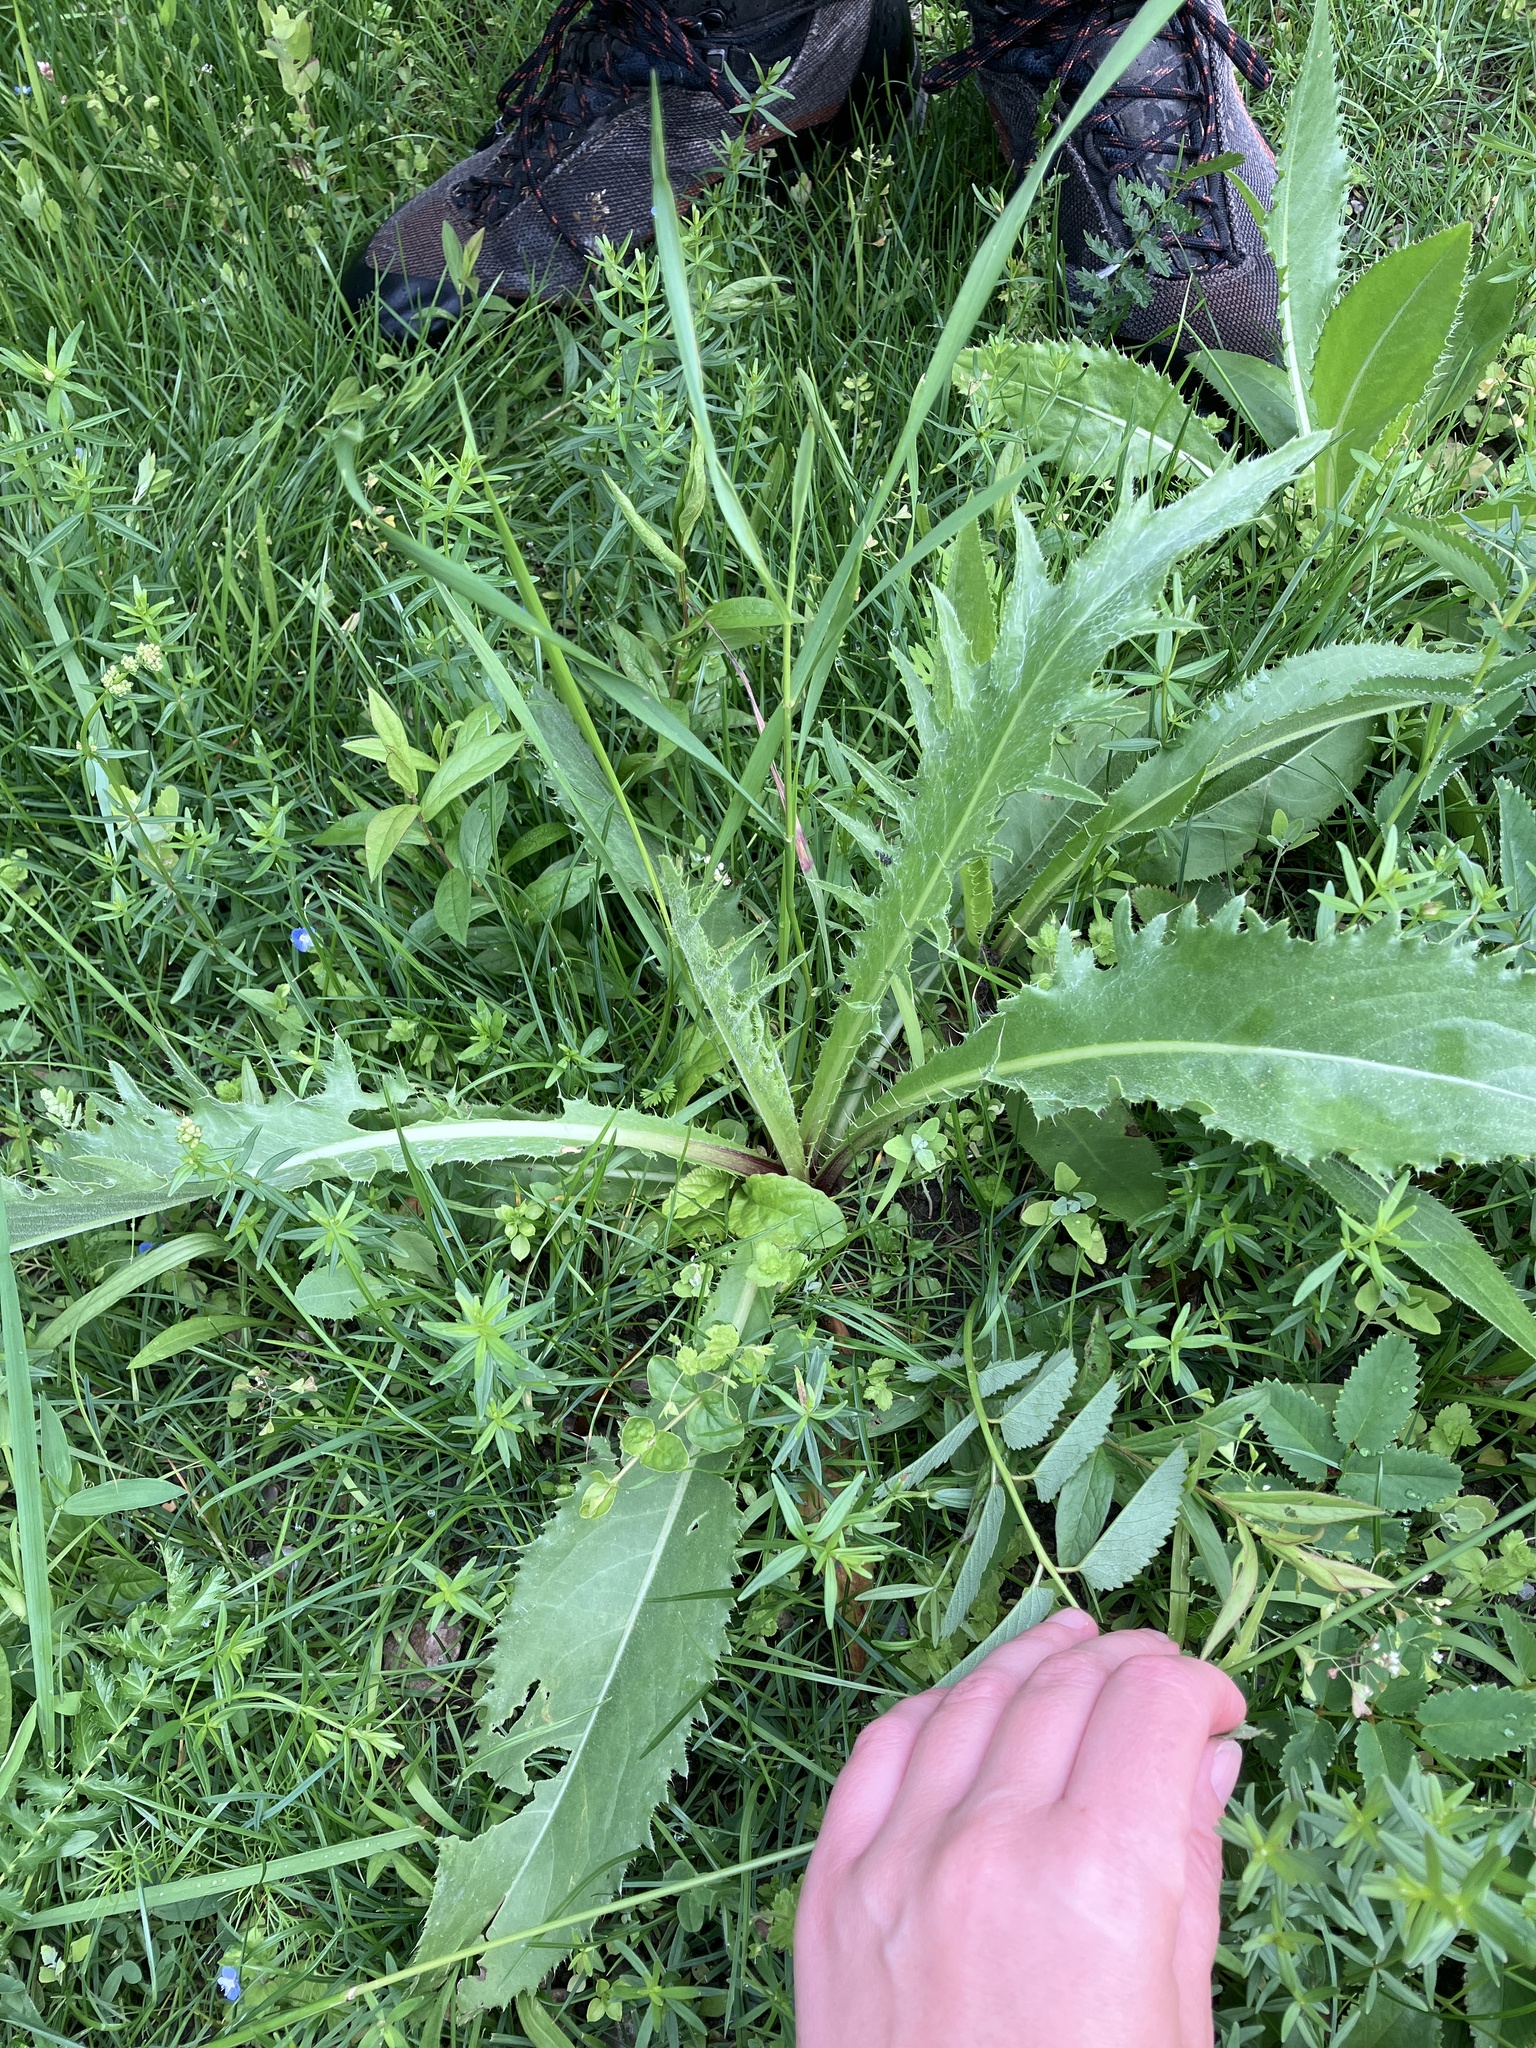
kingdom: Plantae
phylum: Tracheophyta
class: Magnoliopsida
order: Asterales
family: Asteraceae
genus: Cirsium
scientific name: Cirsium canum
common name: Queen anne's thistle
